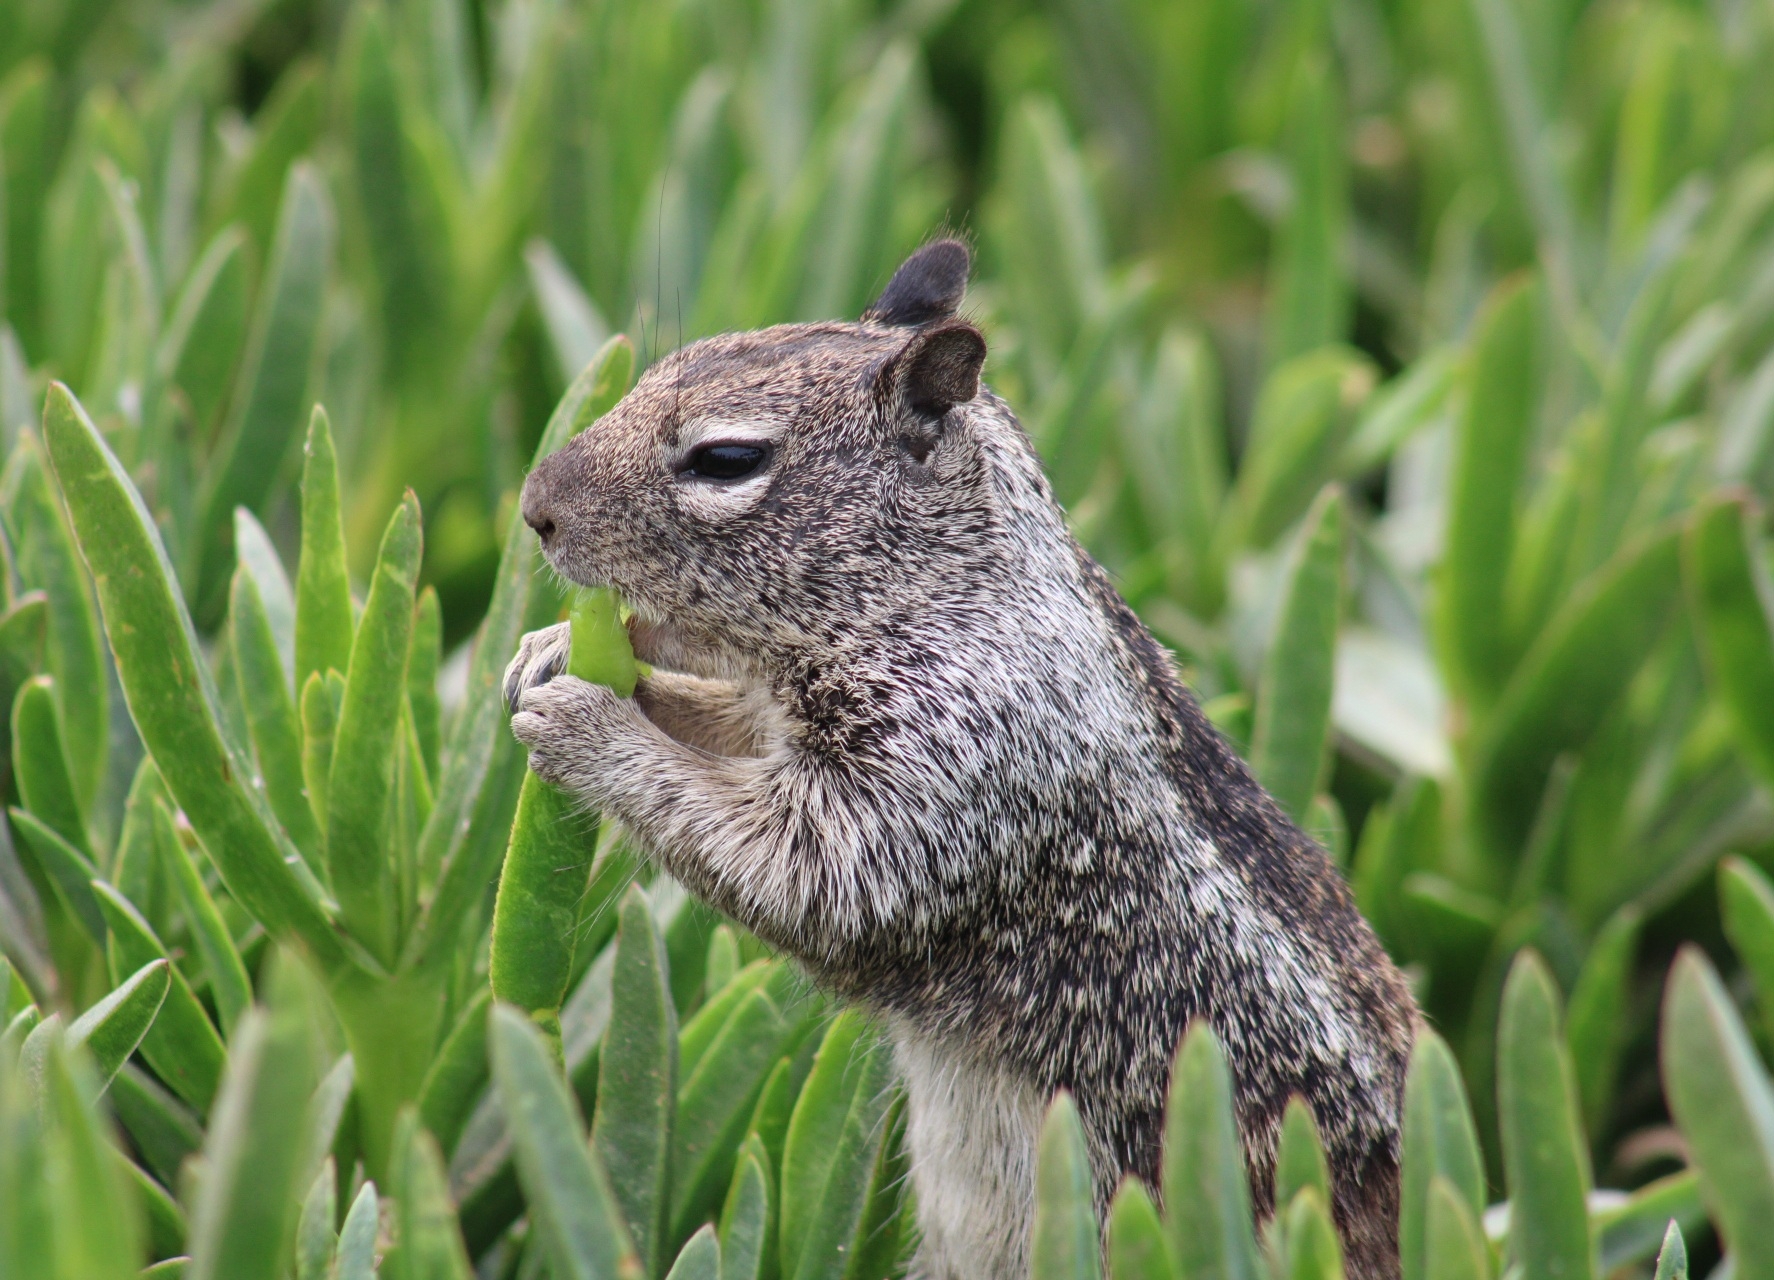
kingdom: Animalia
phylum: Chordata
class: Mammalia
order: Rodentia
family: Sciuridae
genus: Otospermophilus
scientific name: Otospermophilus beecheyi
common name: California ground squirrel
